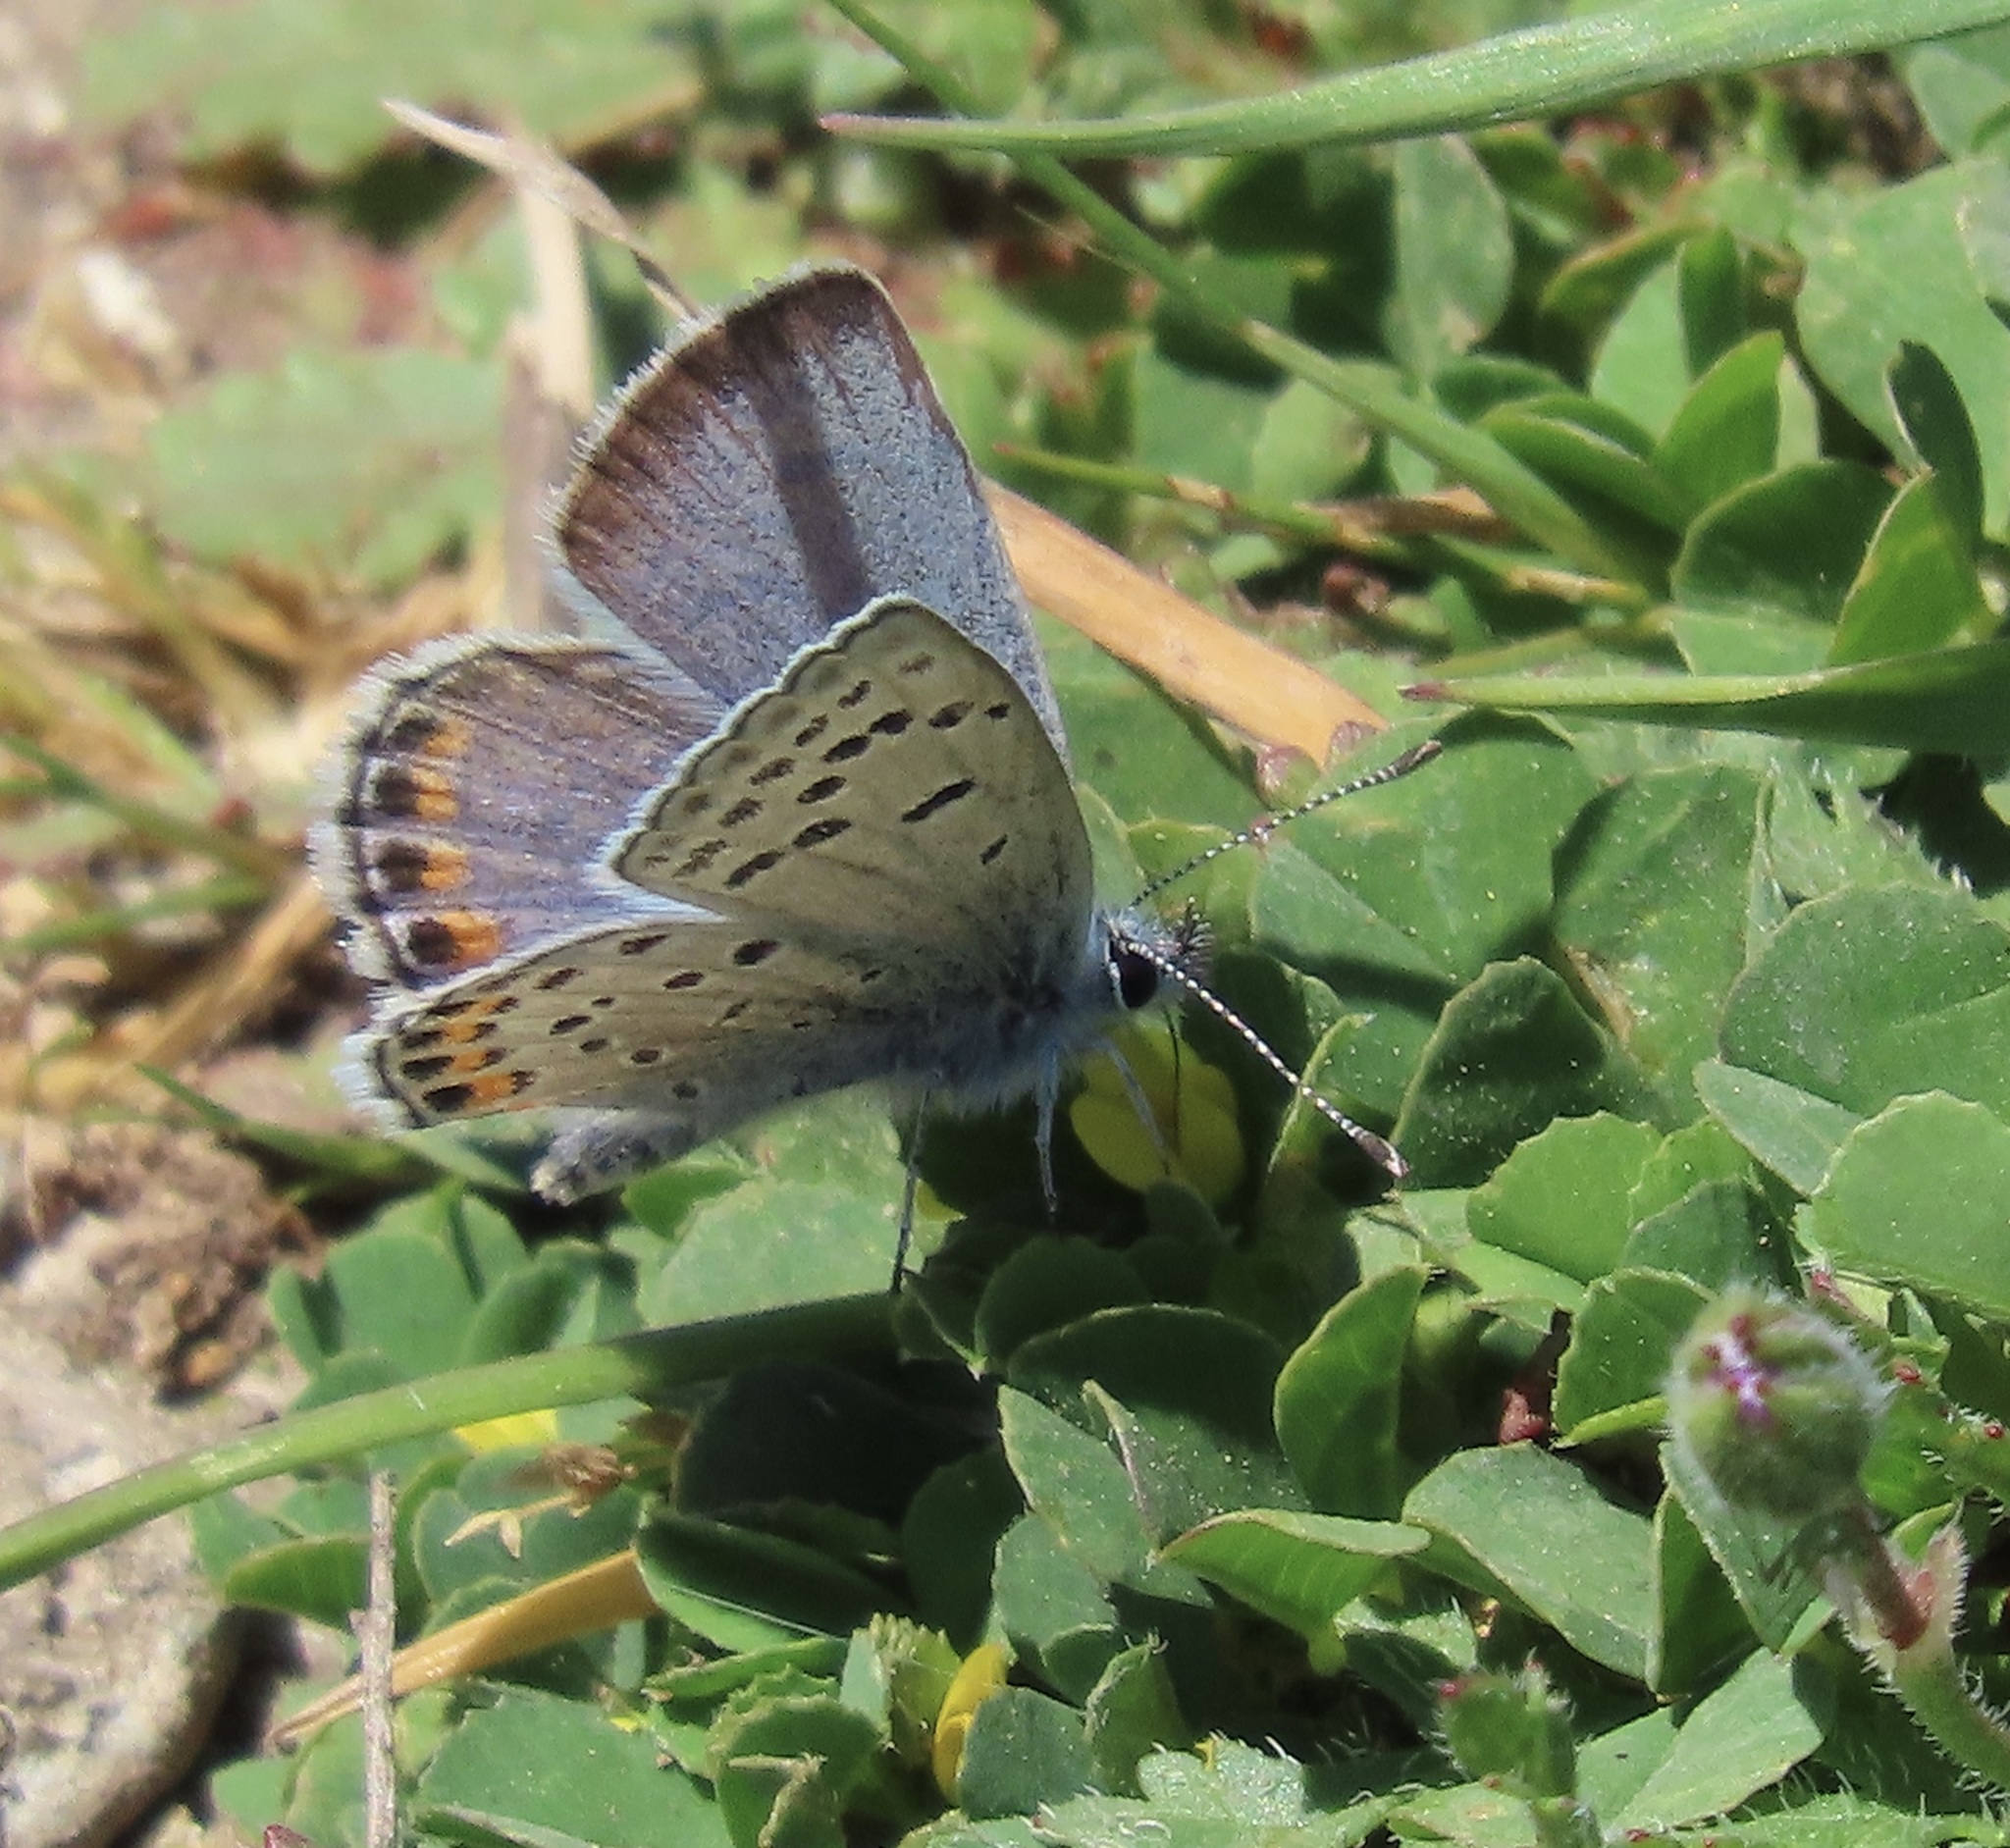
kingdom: Animalia
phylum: Arthropoda
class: Insecta
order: Lepidoptera
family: Lycaenidae
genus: Icaricia
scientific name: Icaricia acmon
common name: Acmon blue
